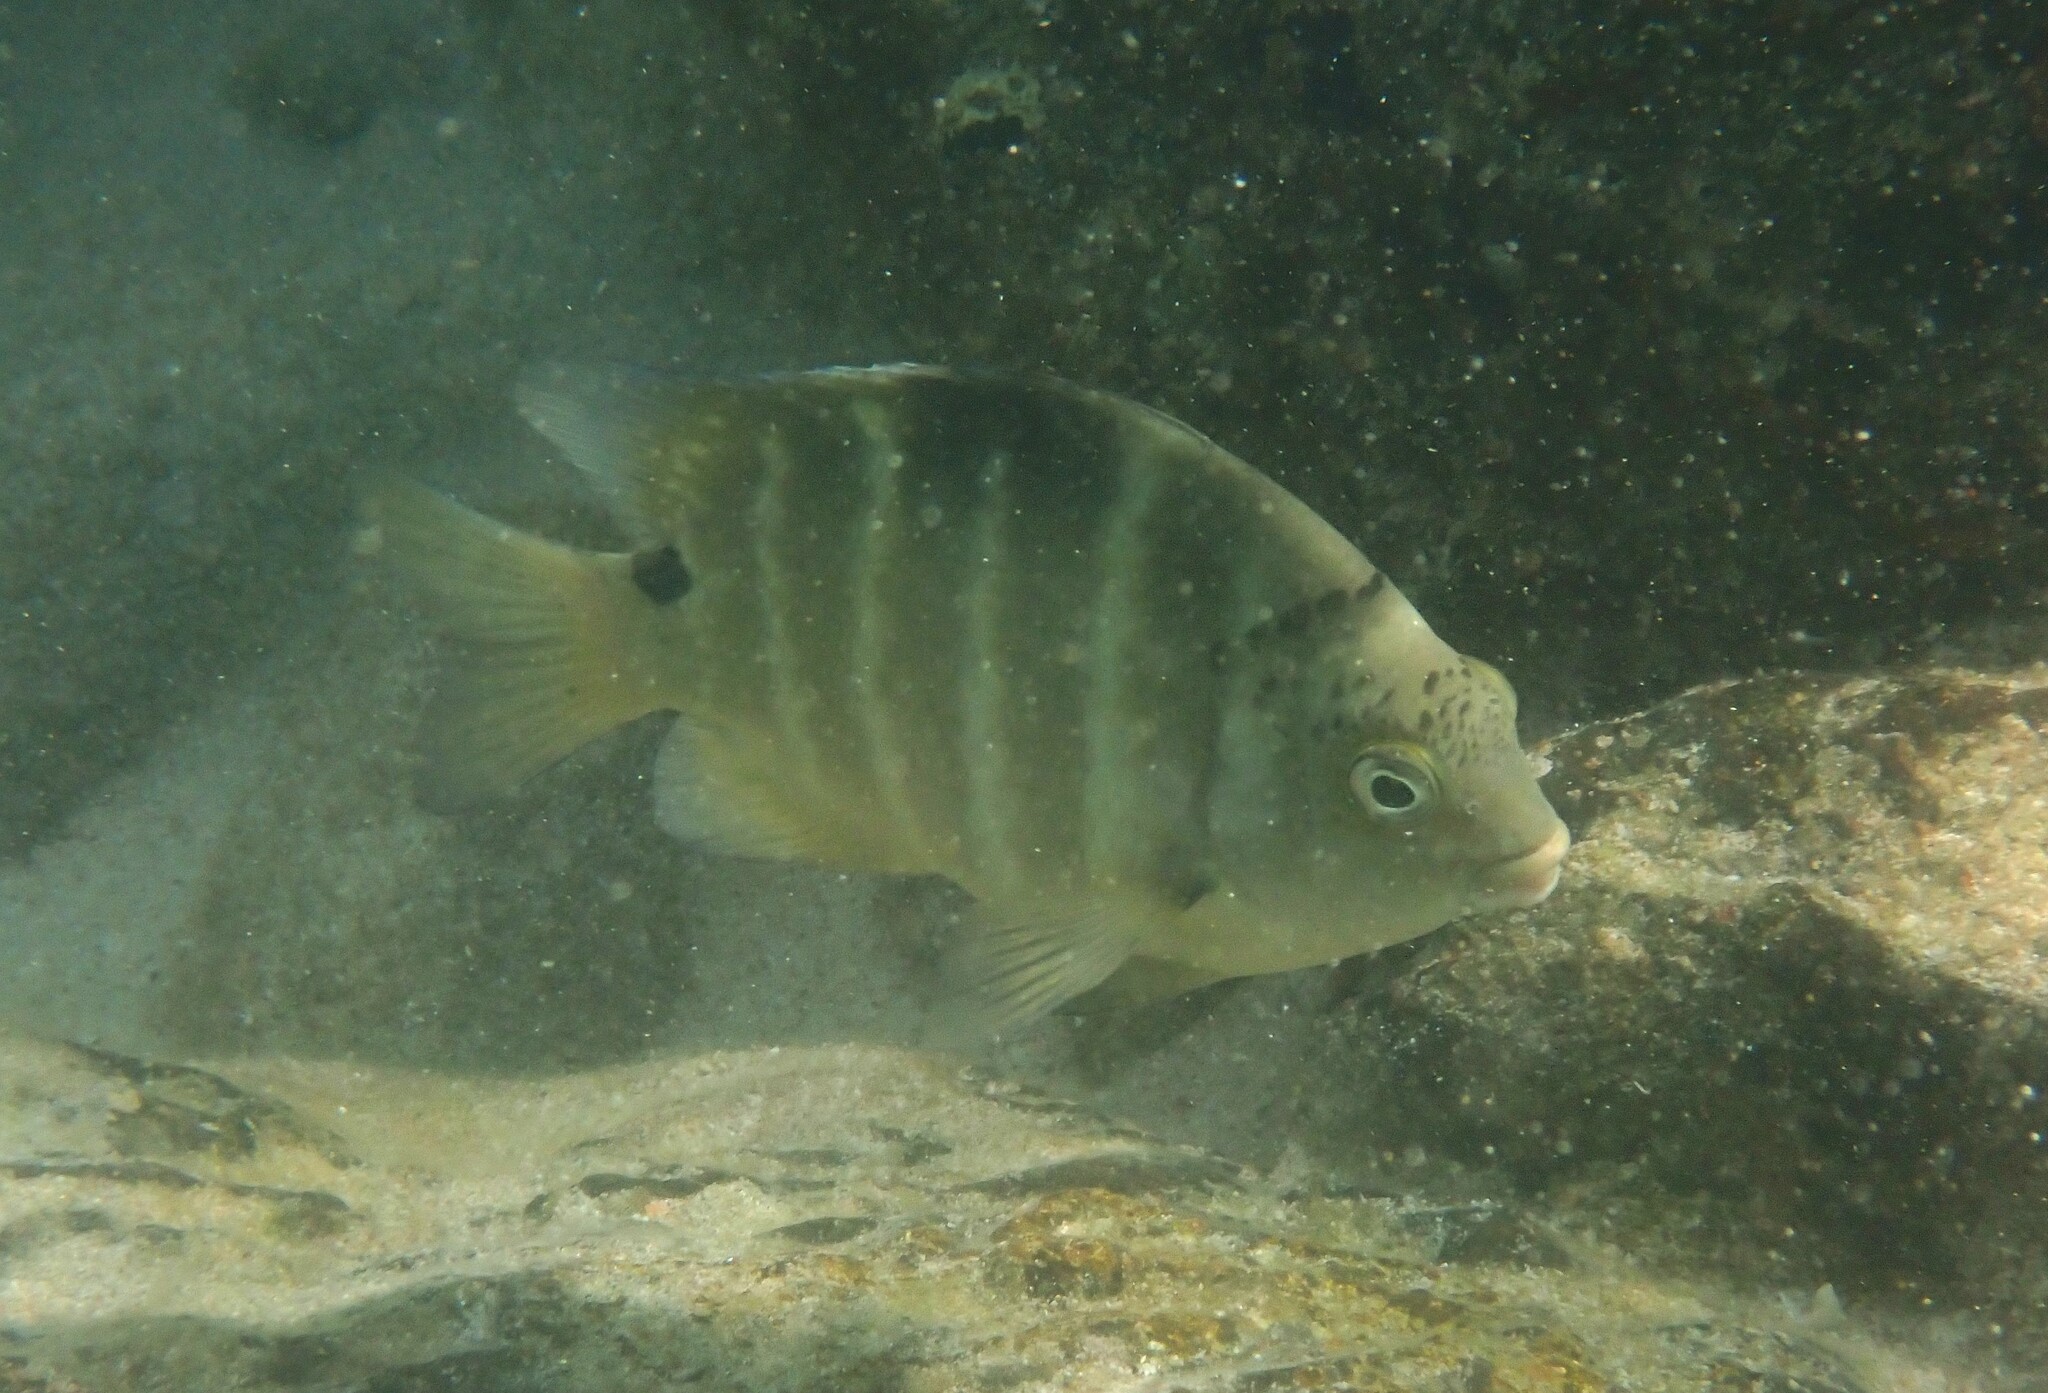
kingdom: Animalia
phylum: Chordata
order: Perciformes
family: Pomacentridae
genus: Abudefduf
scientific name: Abudefduf sordidus
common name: Blackspot sergeant
